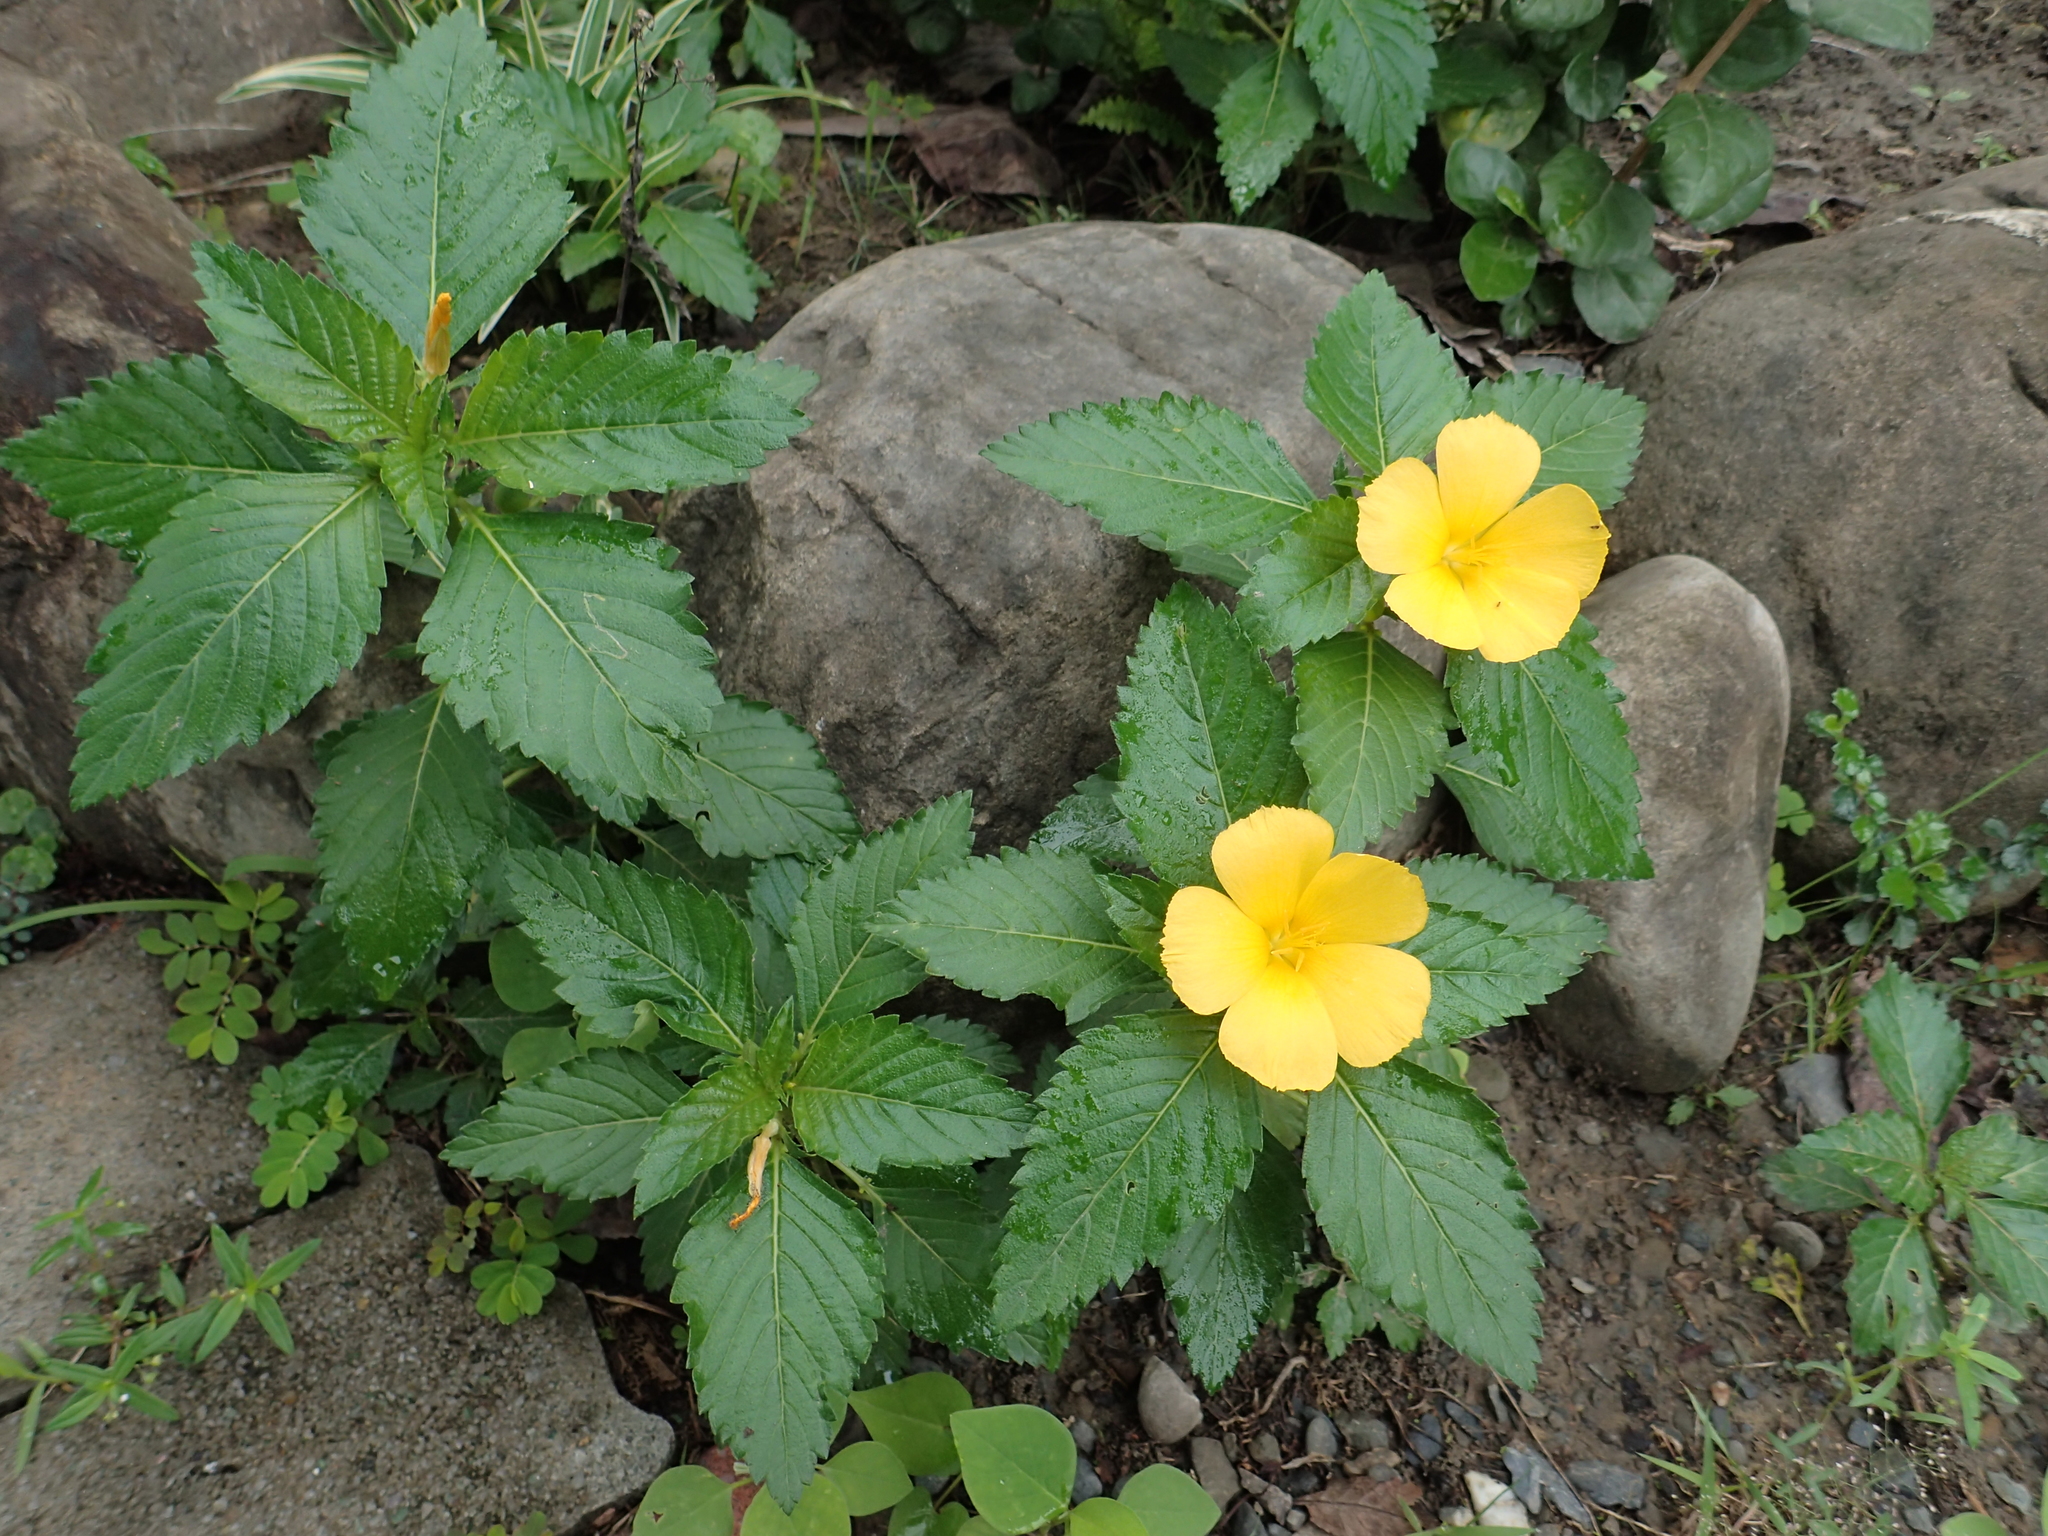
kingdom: Plantae
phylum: Tracheophyta
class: Magnoliopsida
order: Malpighiales
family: Turneraceae
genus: Turnera
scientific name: Turnera ulmifolia
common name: Ramgoat dashalong
